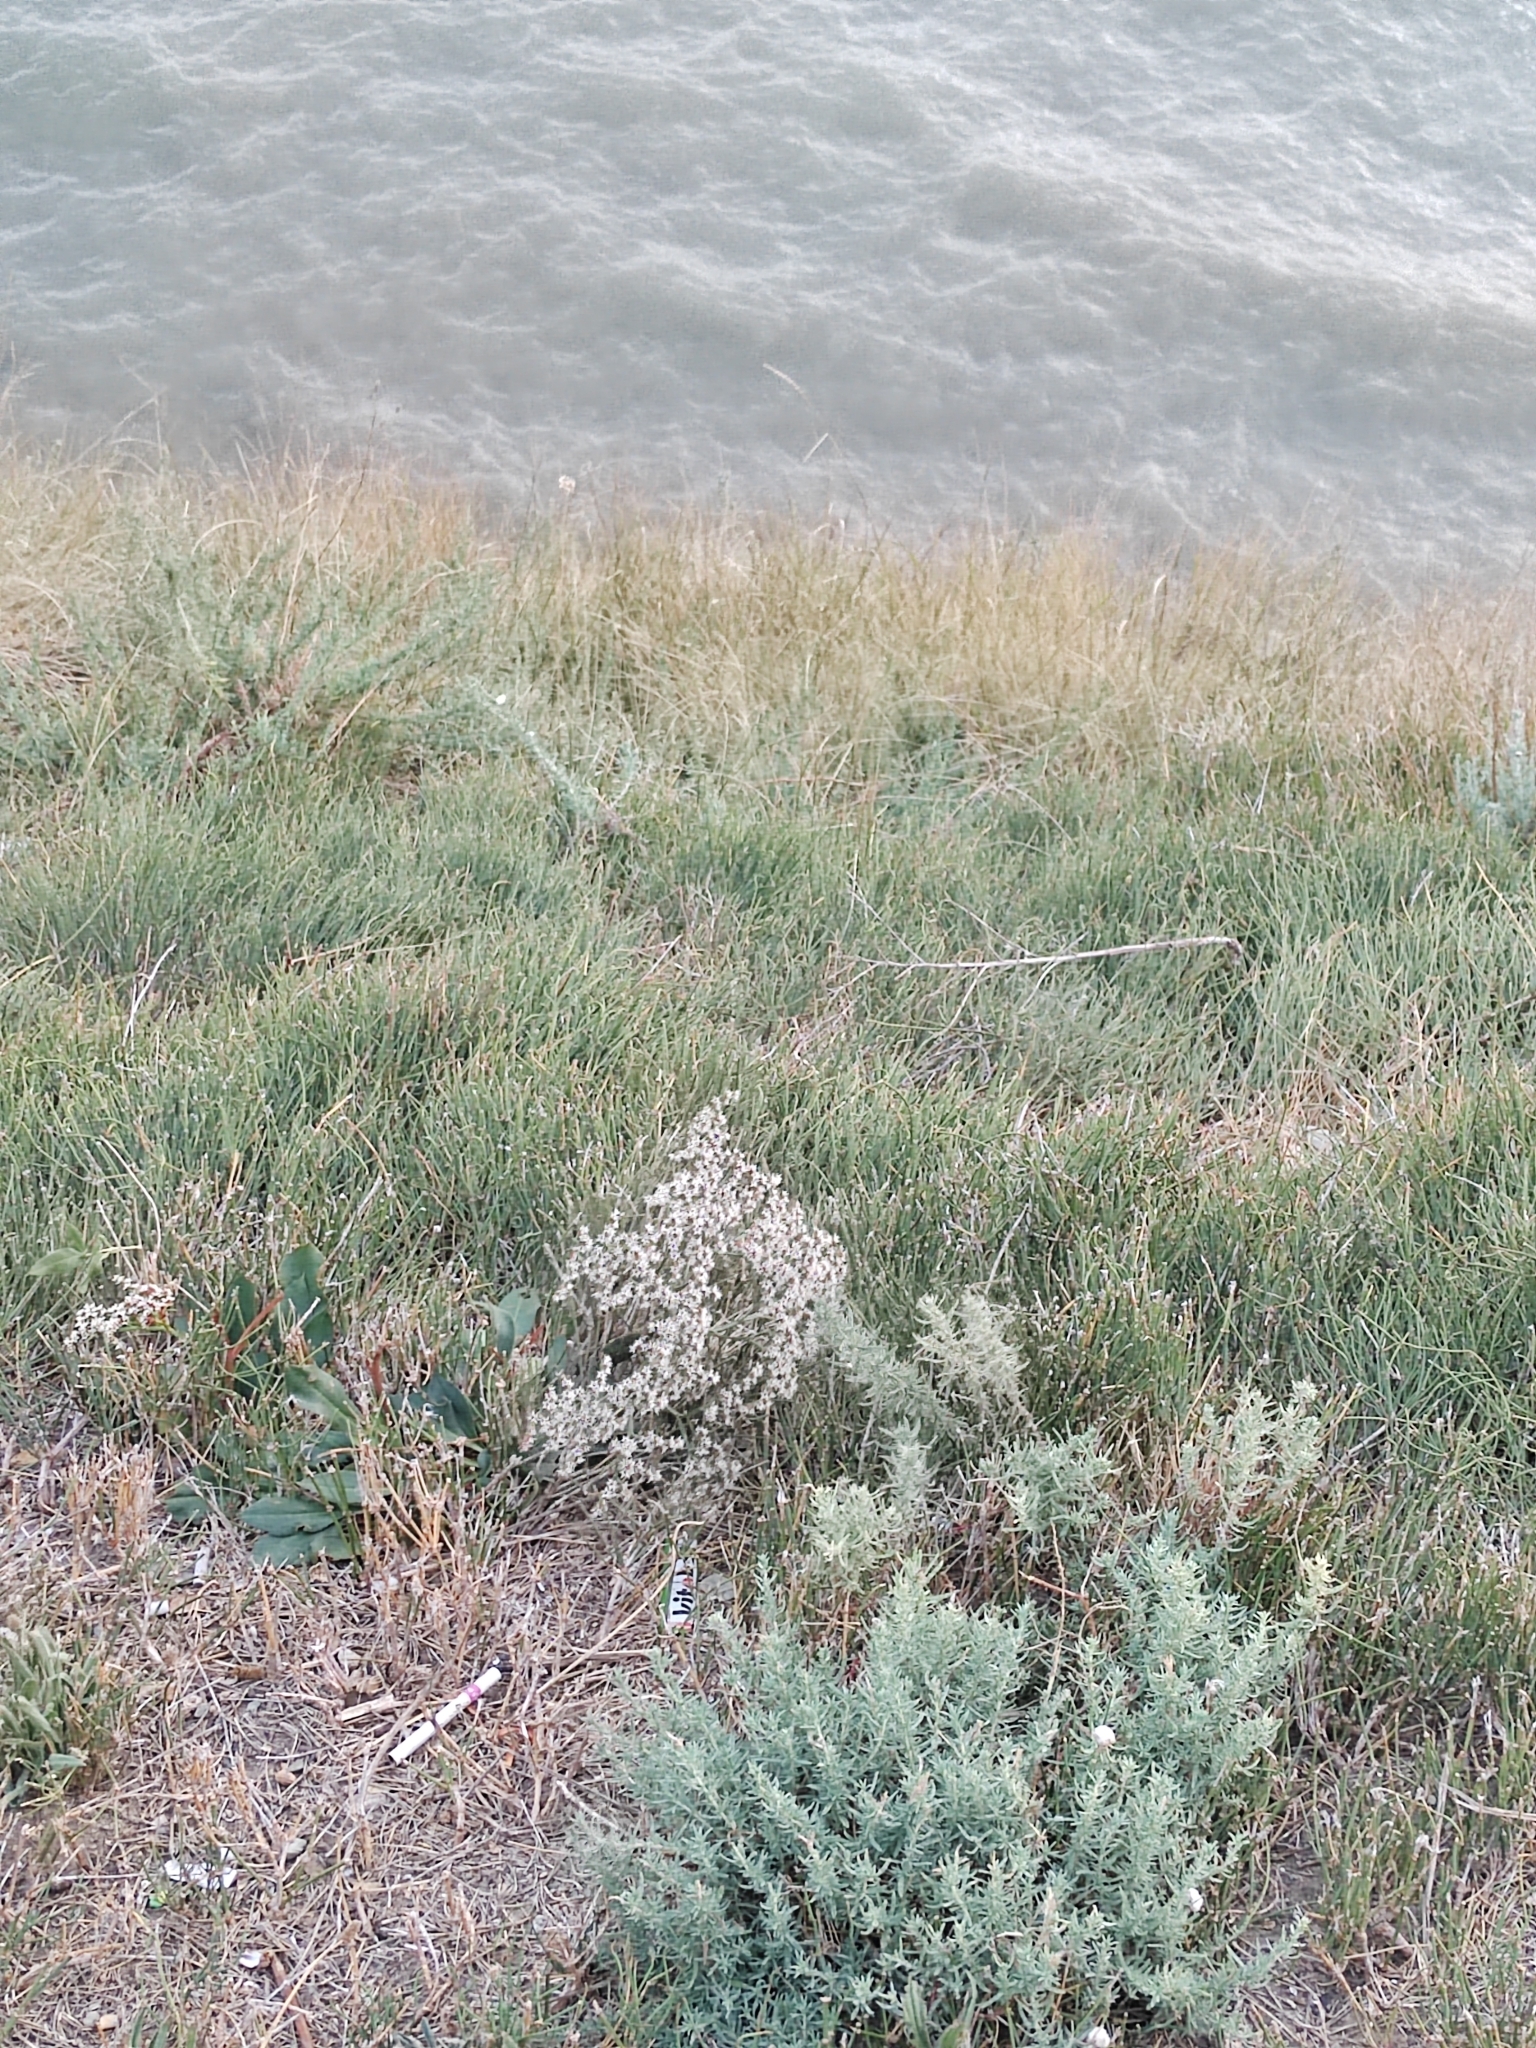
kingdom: Plantae
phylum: Tracheophyta
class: Magnoliopsida
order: Caryophyllales
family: Plumbaginaceae
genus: Goniolimon
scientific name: Goniolimon tataricum
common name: Statice
